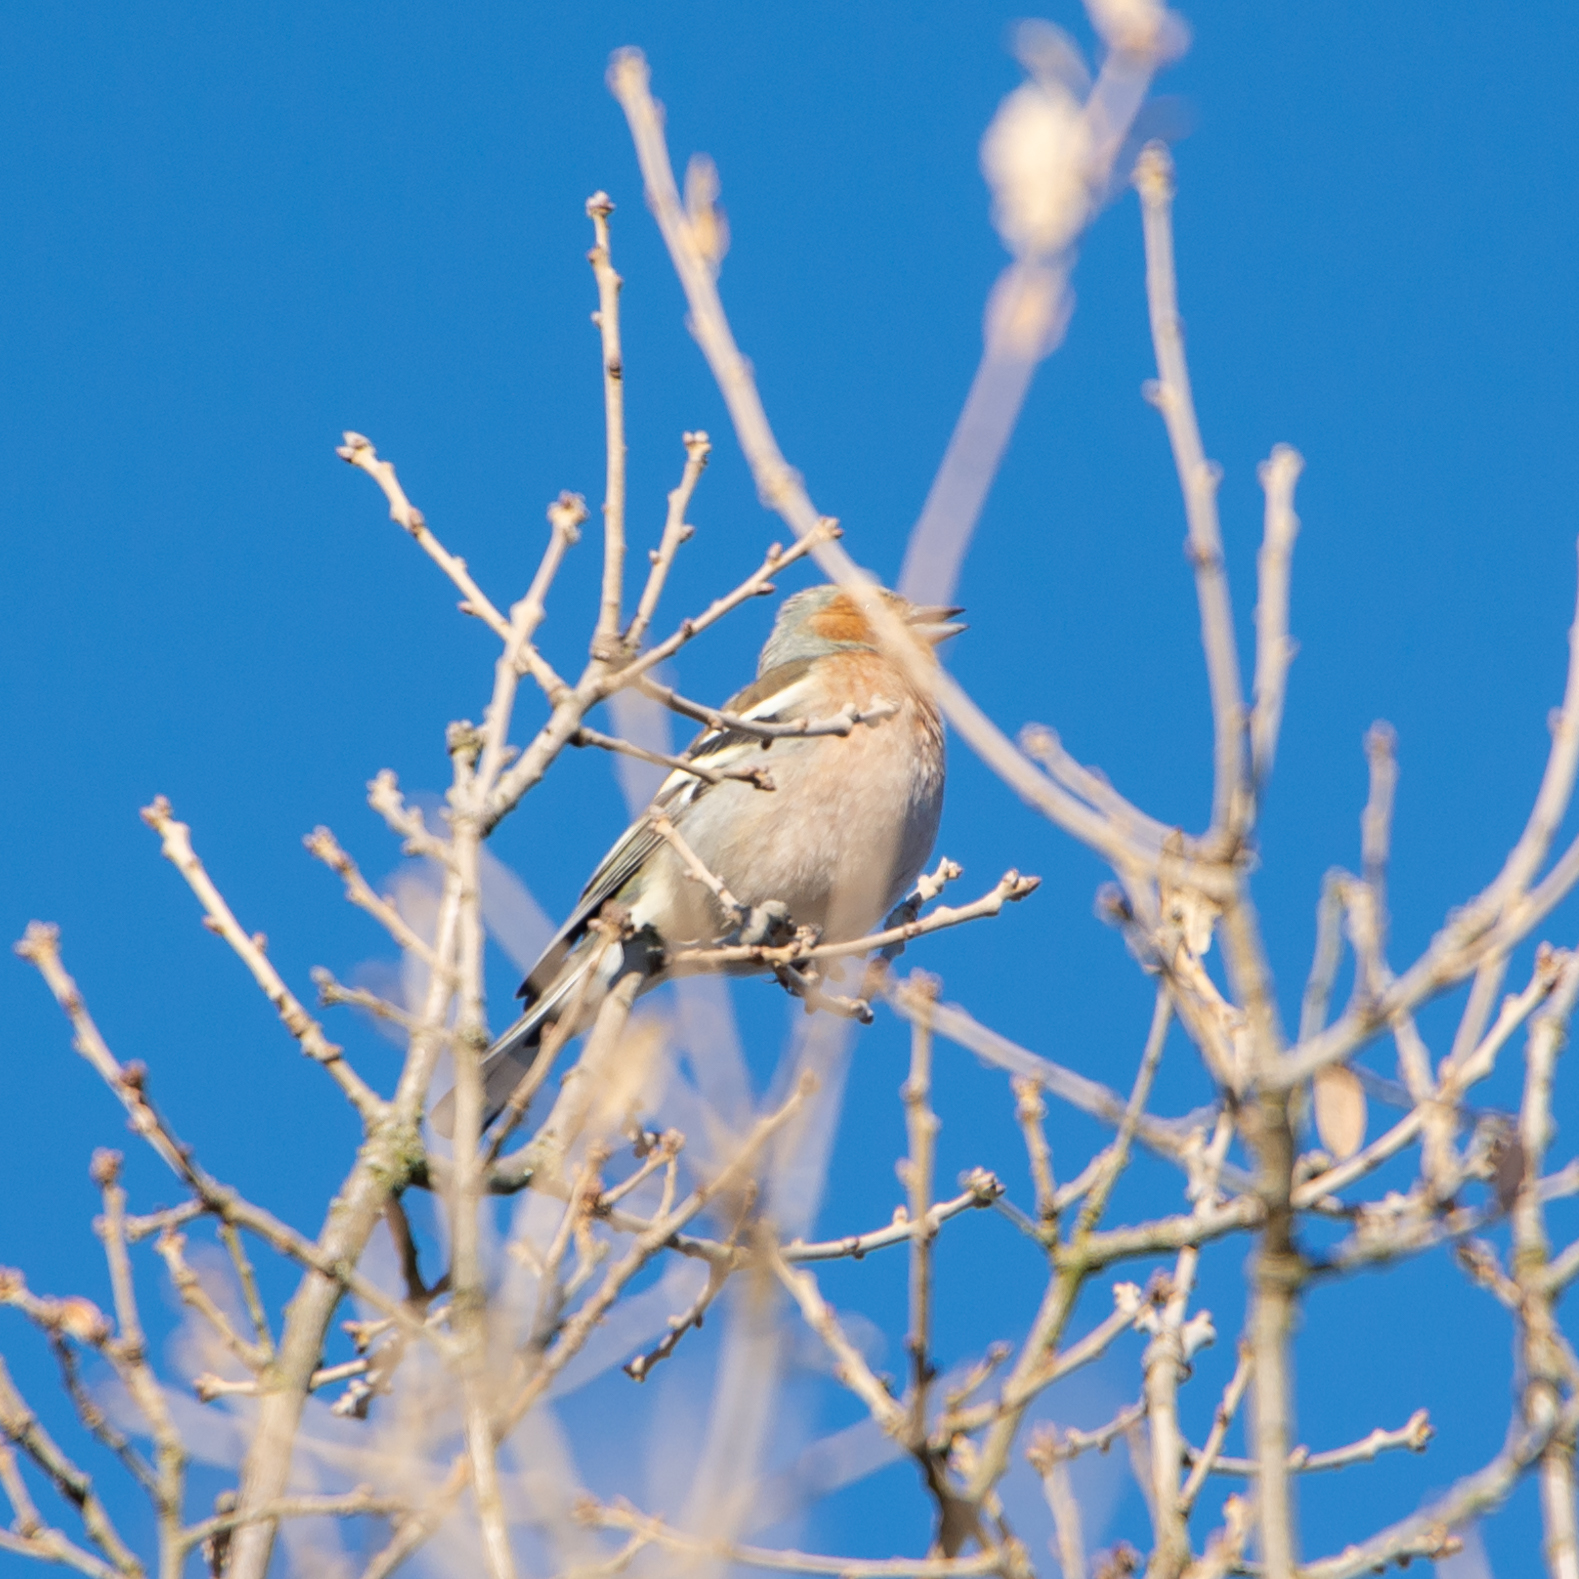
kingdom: Animalia
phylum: Chordata
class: Aves
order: Passeriformes
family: Fringillidae
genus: Fringilla
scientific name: Fringilla coelebs
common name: Common chaffinch
